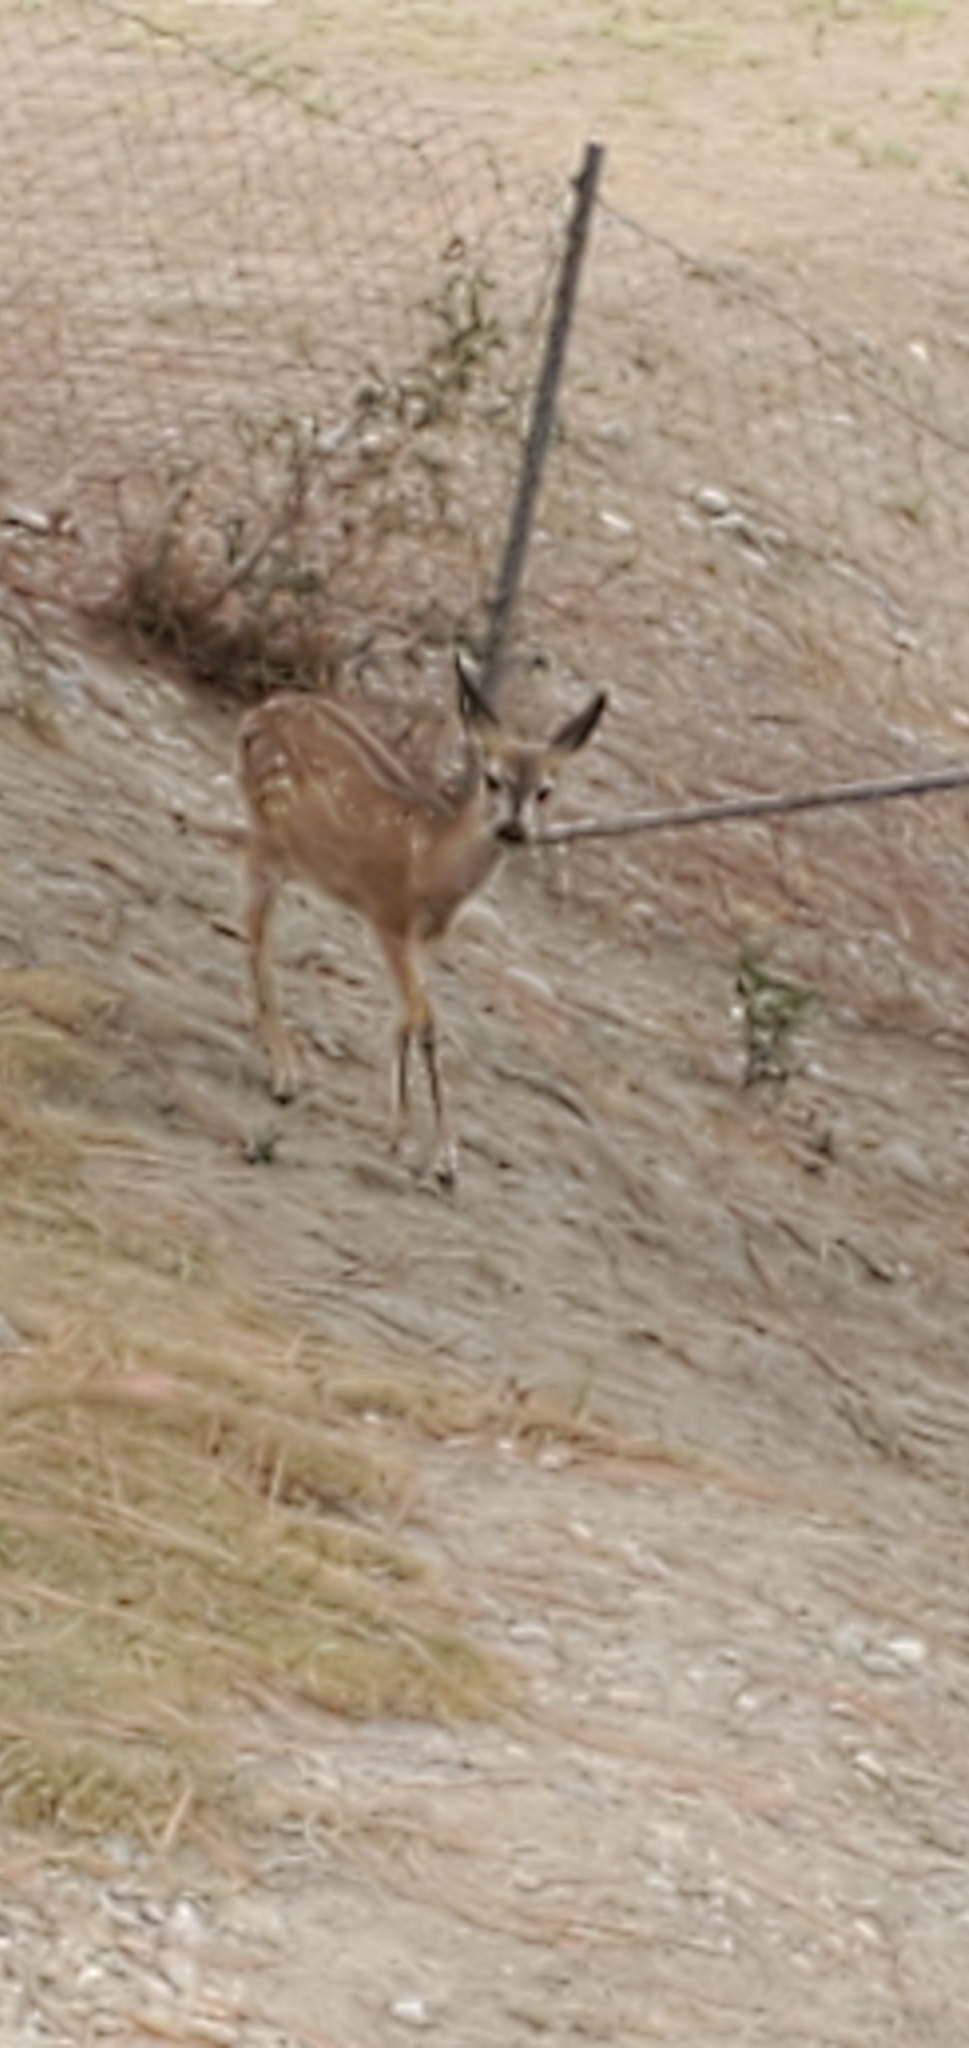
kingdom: Animalia
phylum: Chordata
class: Mammalia
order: Artiodactyla
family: Cervidae
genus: Odocoileus
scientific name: Odocoileus hemionus
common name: Mule deer
